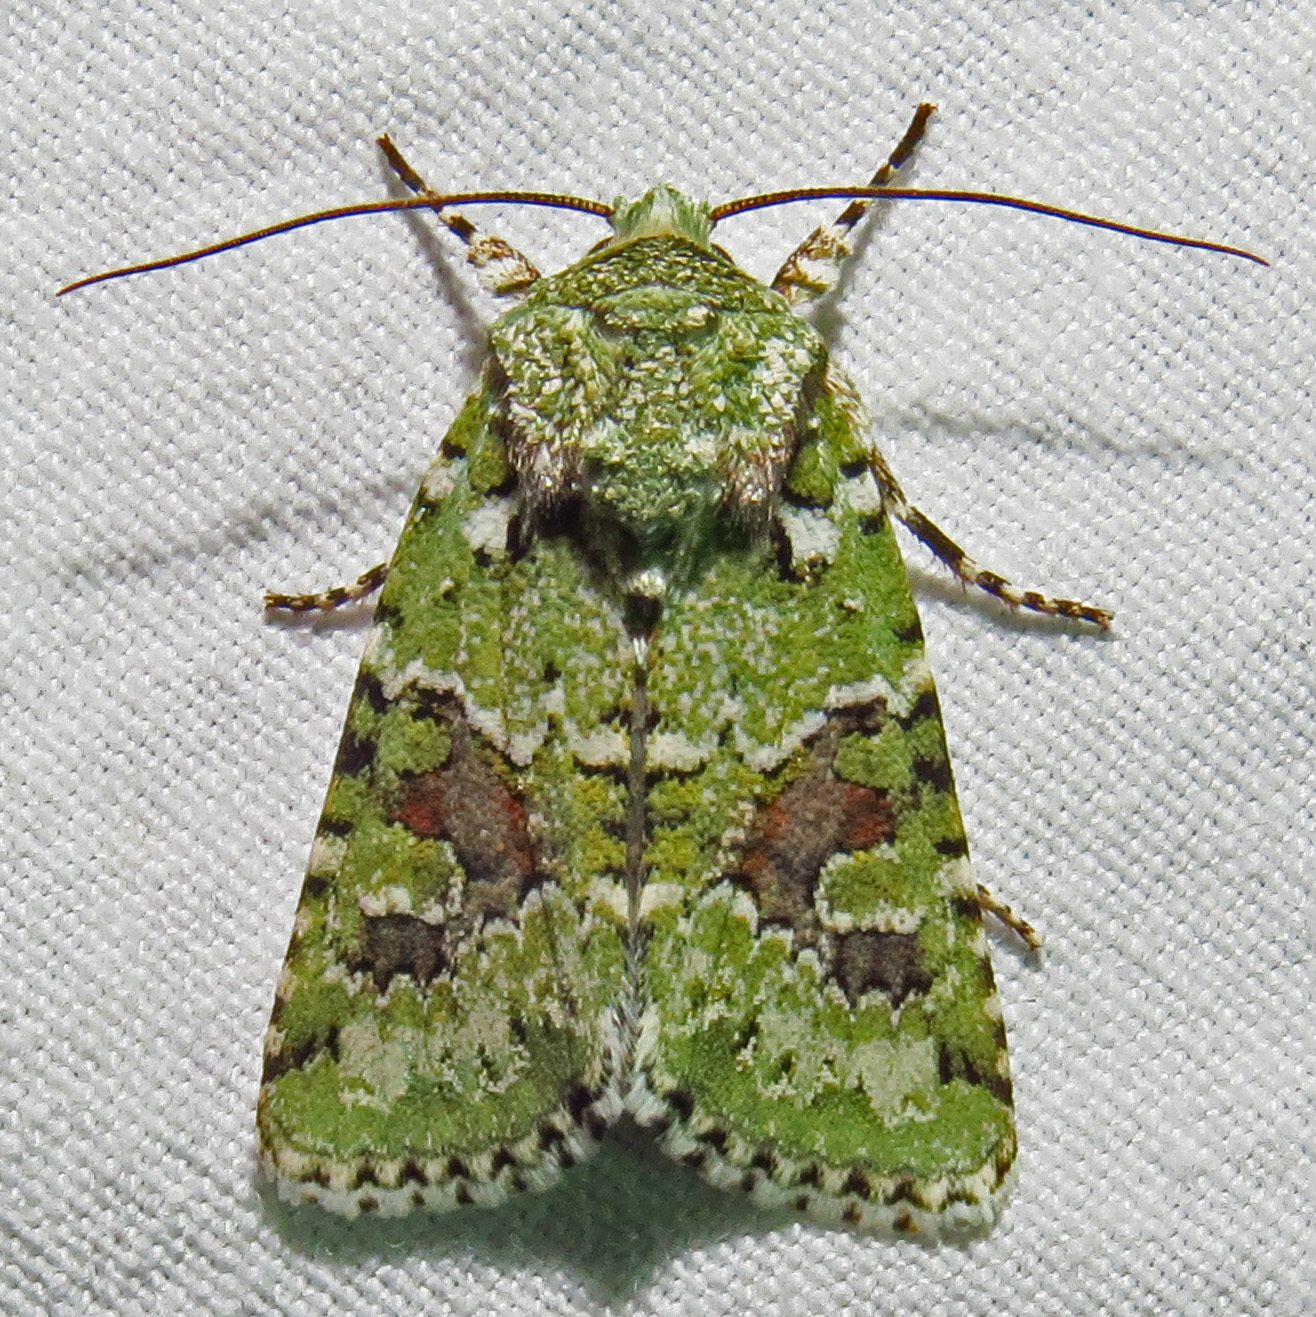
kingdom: Animalia
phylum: Arthropoda
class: Insecta
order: Lepidoptera
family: Noctuidae
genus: Lacinipolia
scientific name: Lacinipolia laudabilis
